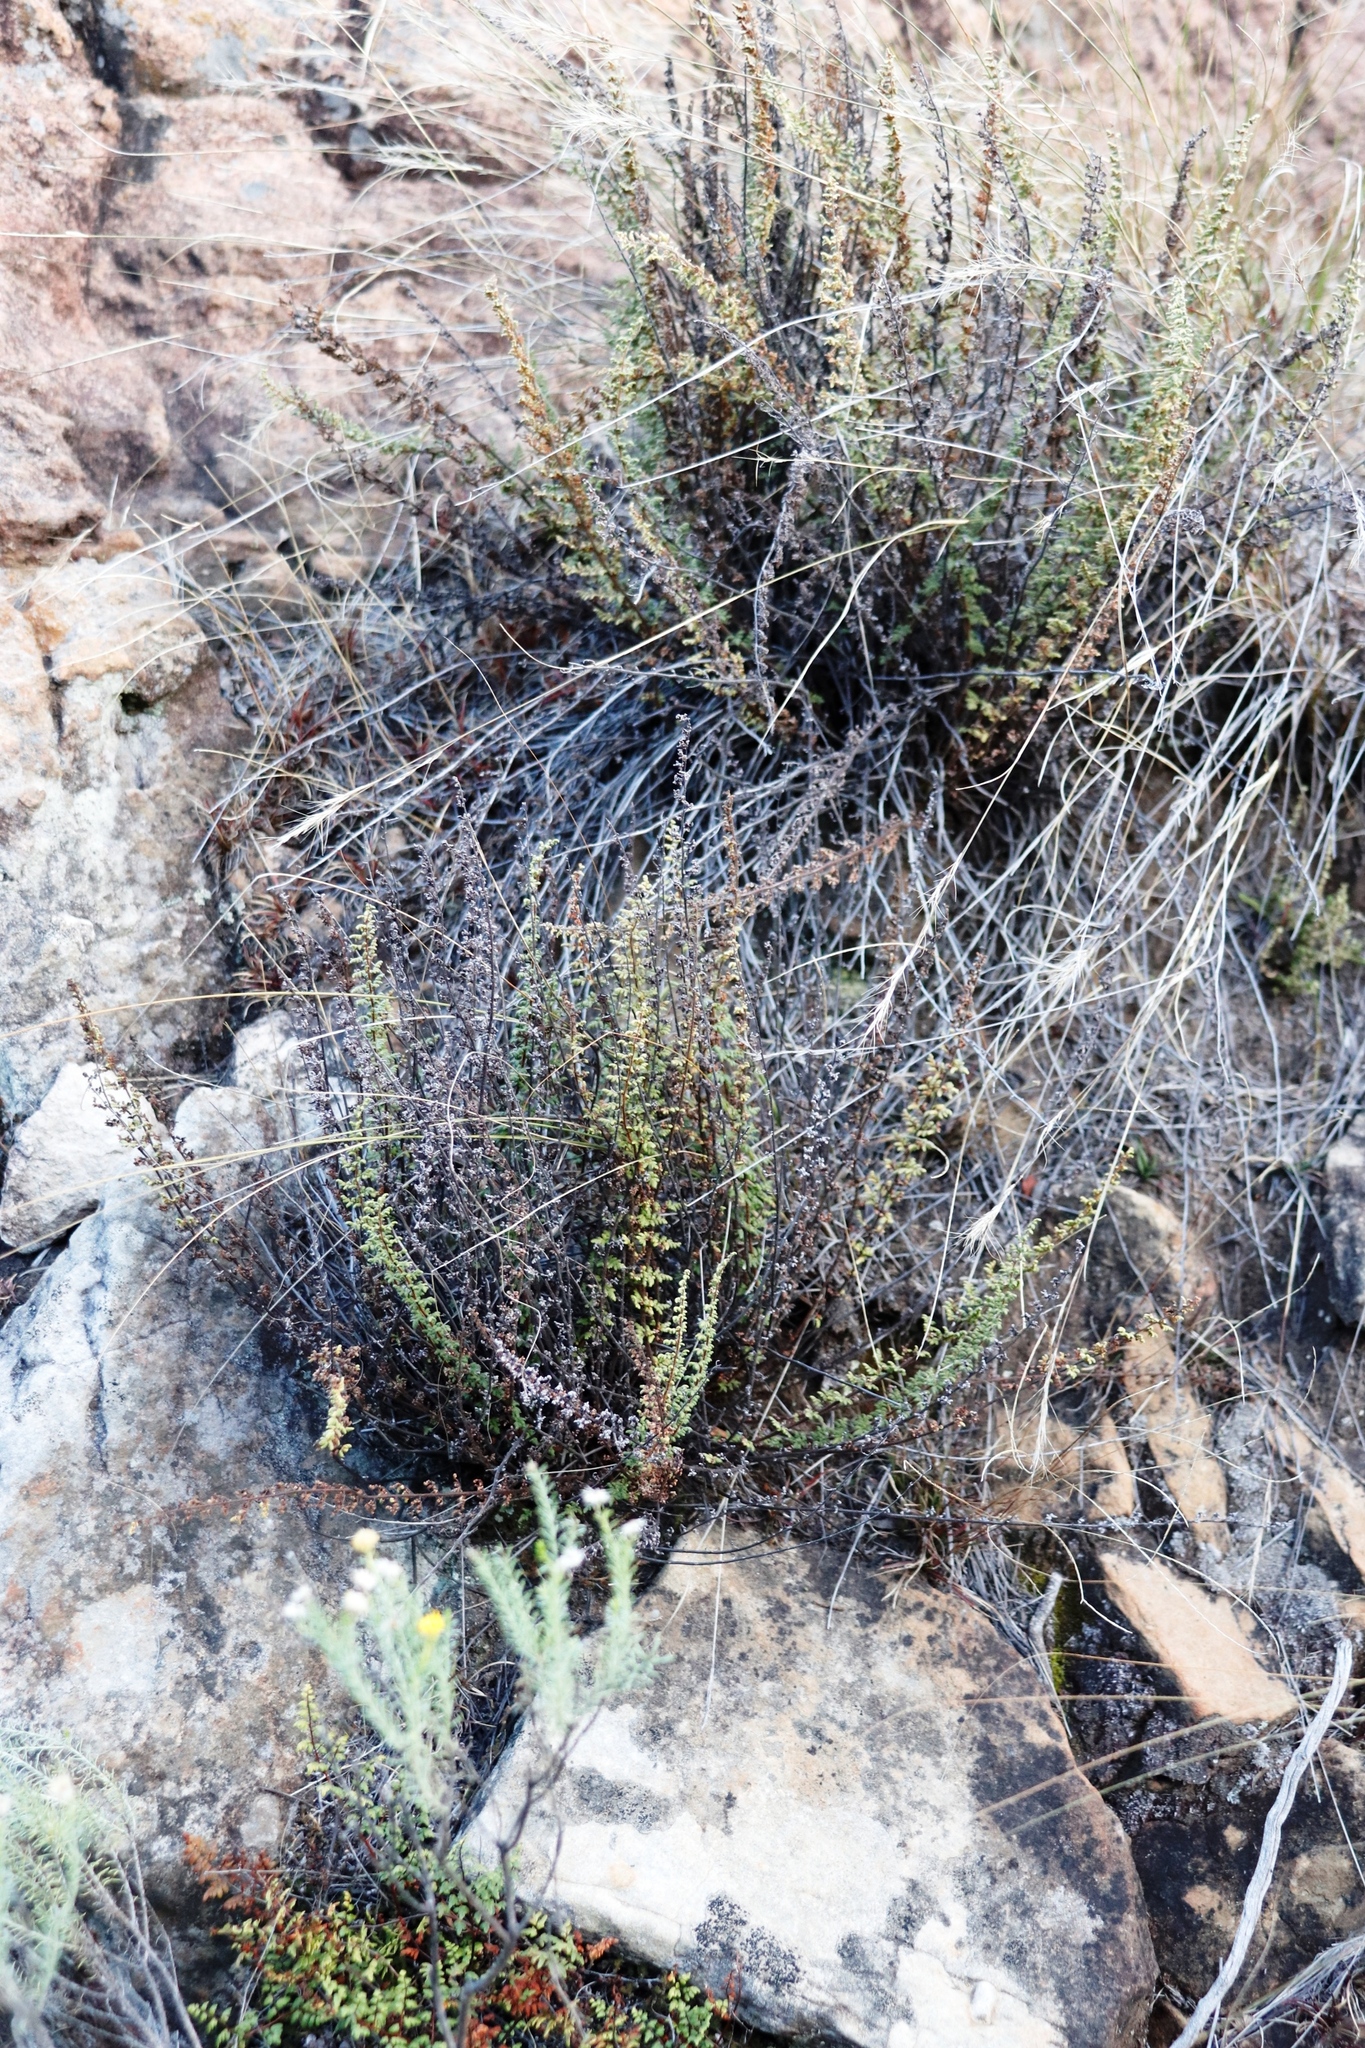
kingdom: Plantae
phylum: Tracheophyta
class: Polypodiopsida
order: Polypodiales
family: Pteridaceae
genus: Cheilanthes
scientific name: Cheilanthes eckloniana
